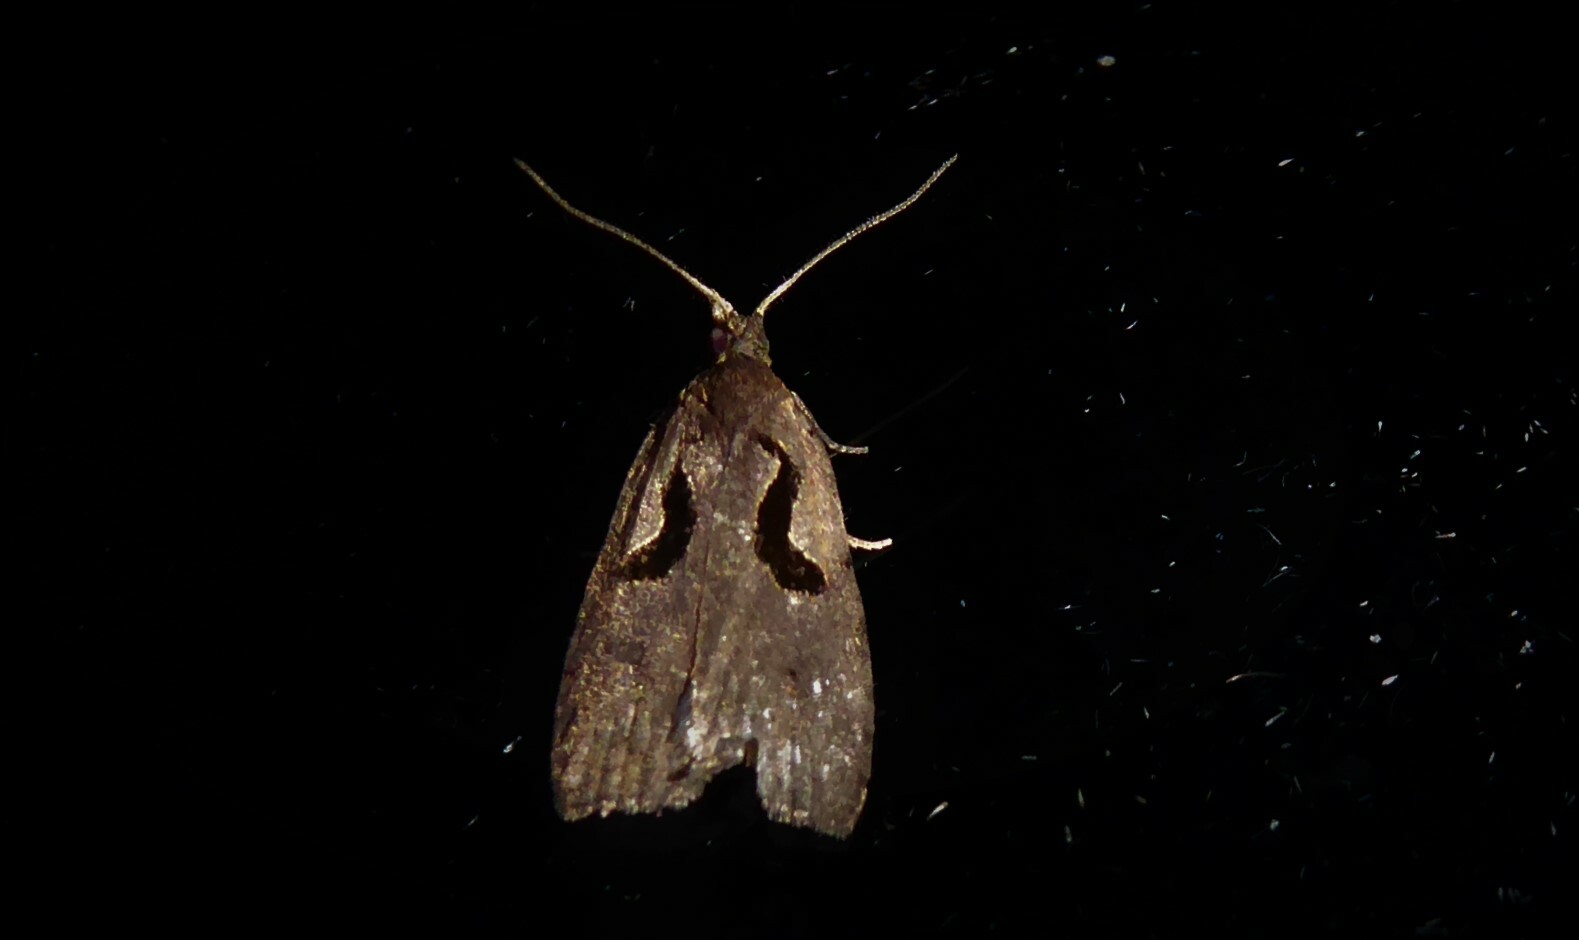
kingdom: Animalia
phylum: Arthropoda
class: Insecta
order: Lepidoptera
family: Tortricidae
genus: Cnephasia
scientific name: Cnephasia jactatana
